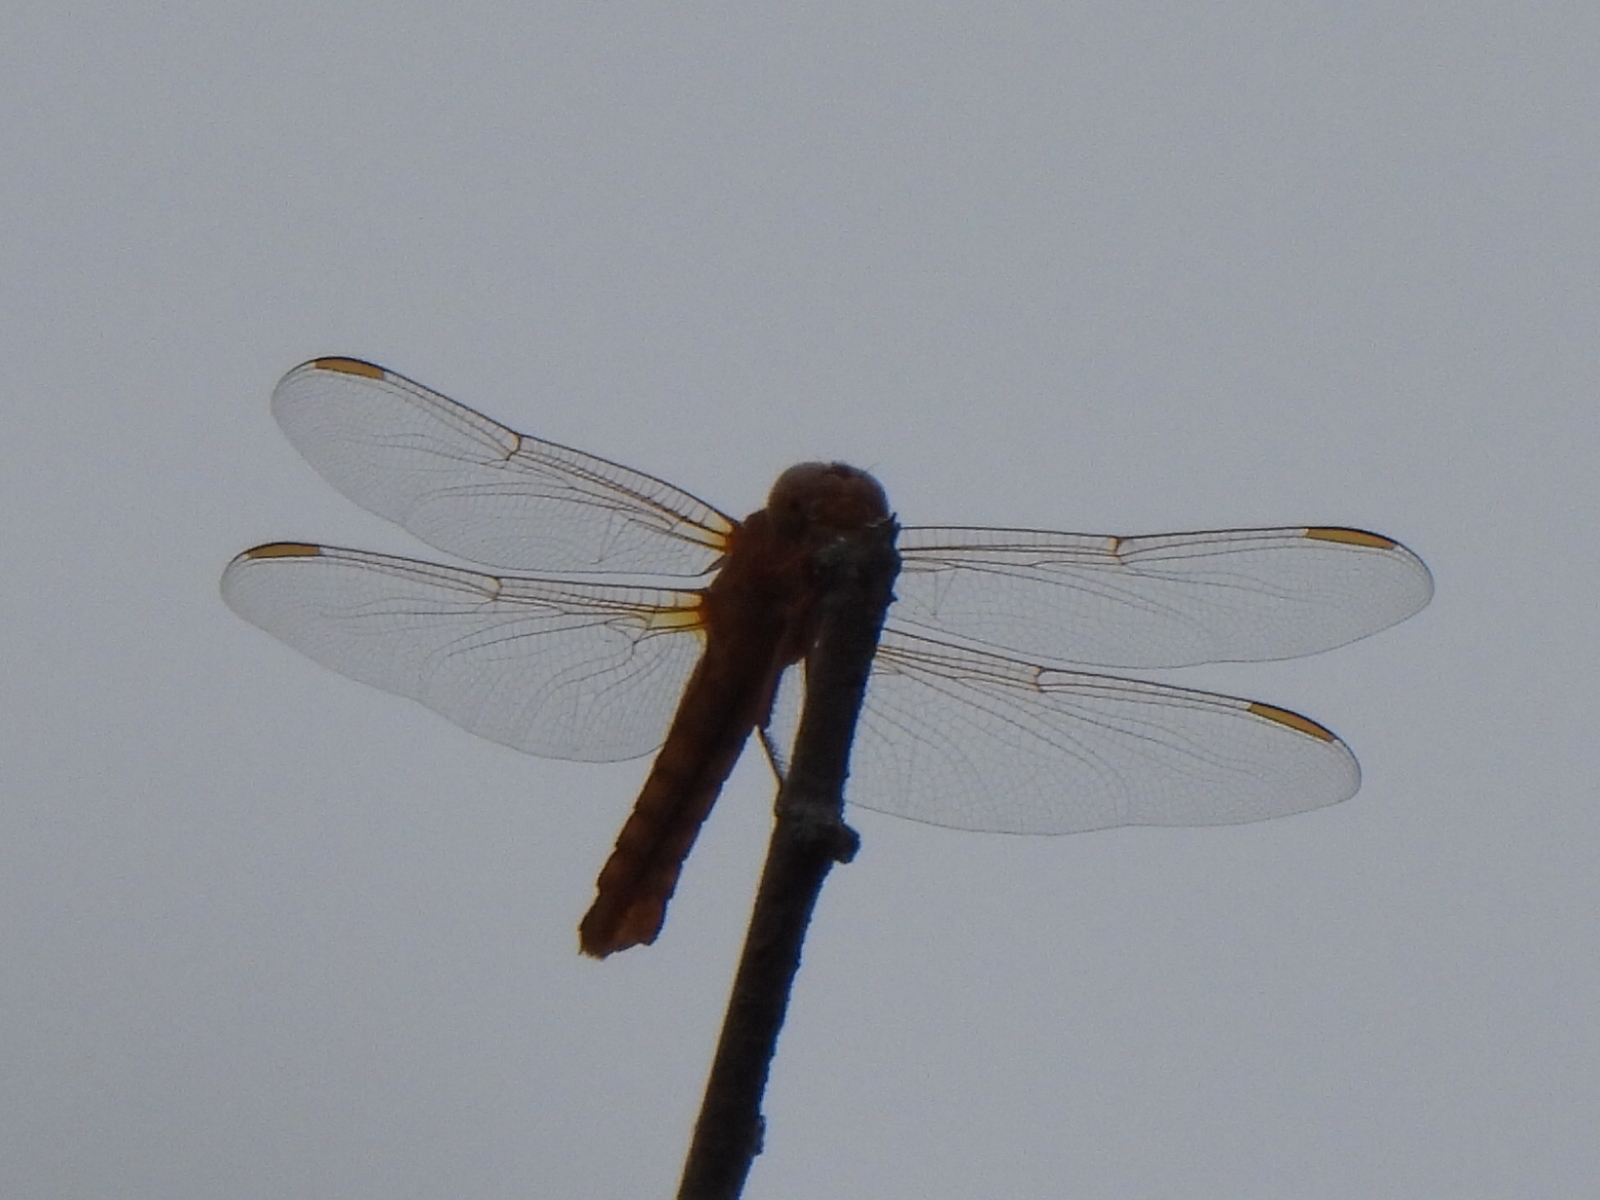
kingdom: Animalia
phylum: Arthropoda
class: Insecta
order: Odonata
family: Libellulidae
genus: Libellula
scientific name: Libellula croceipennis
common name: Neon skimmer
